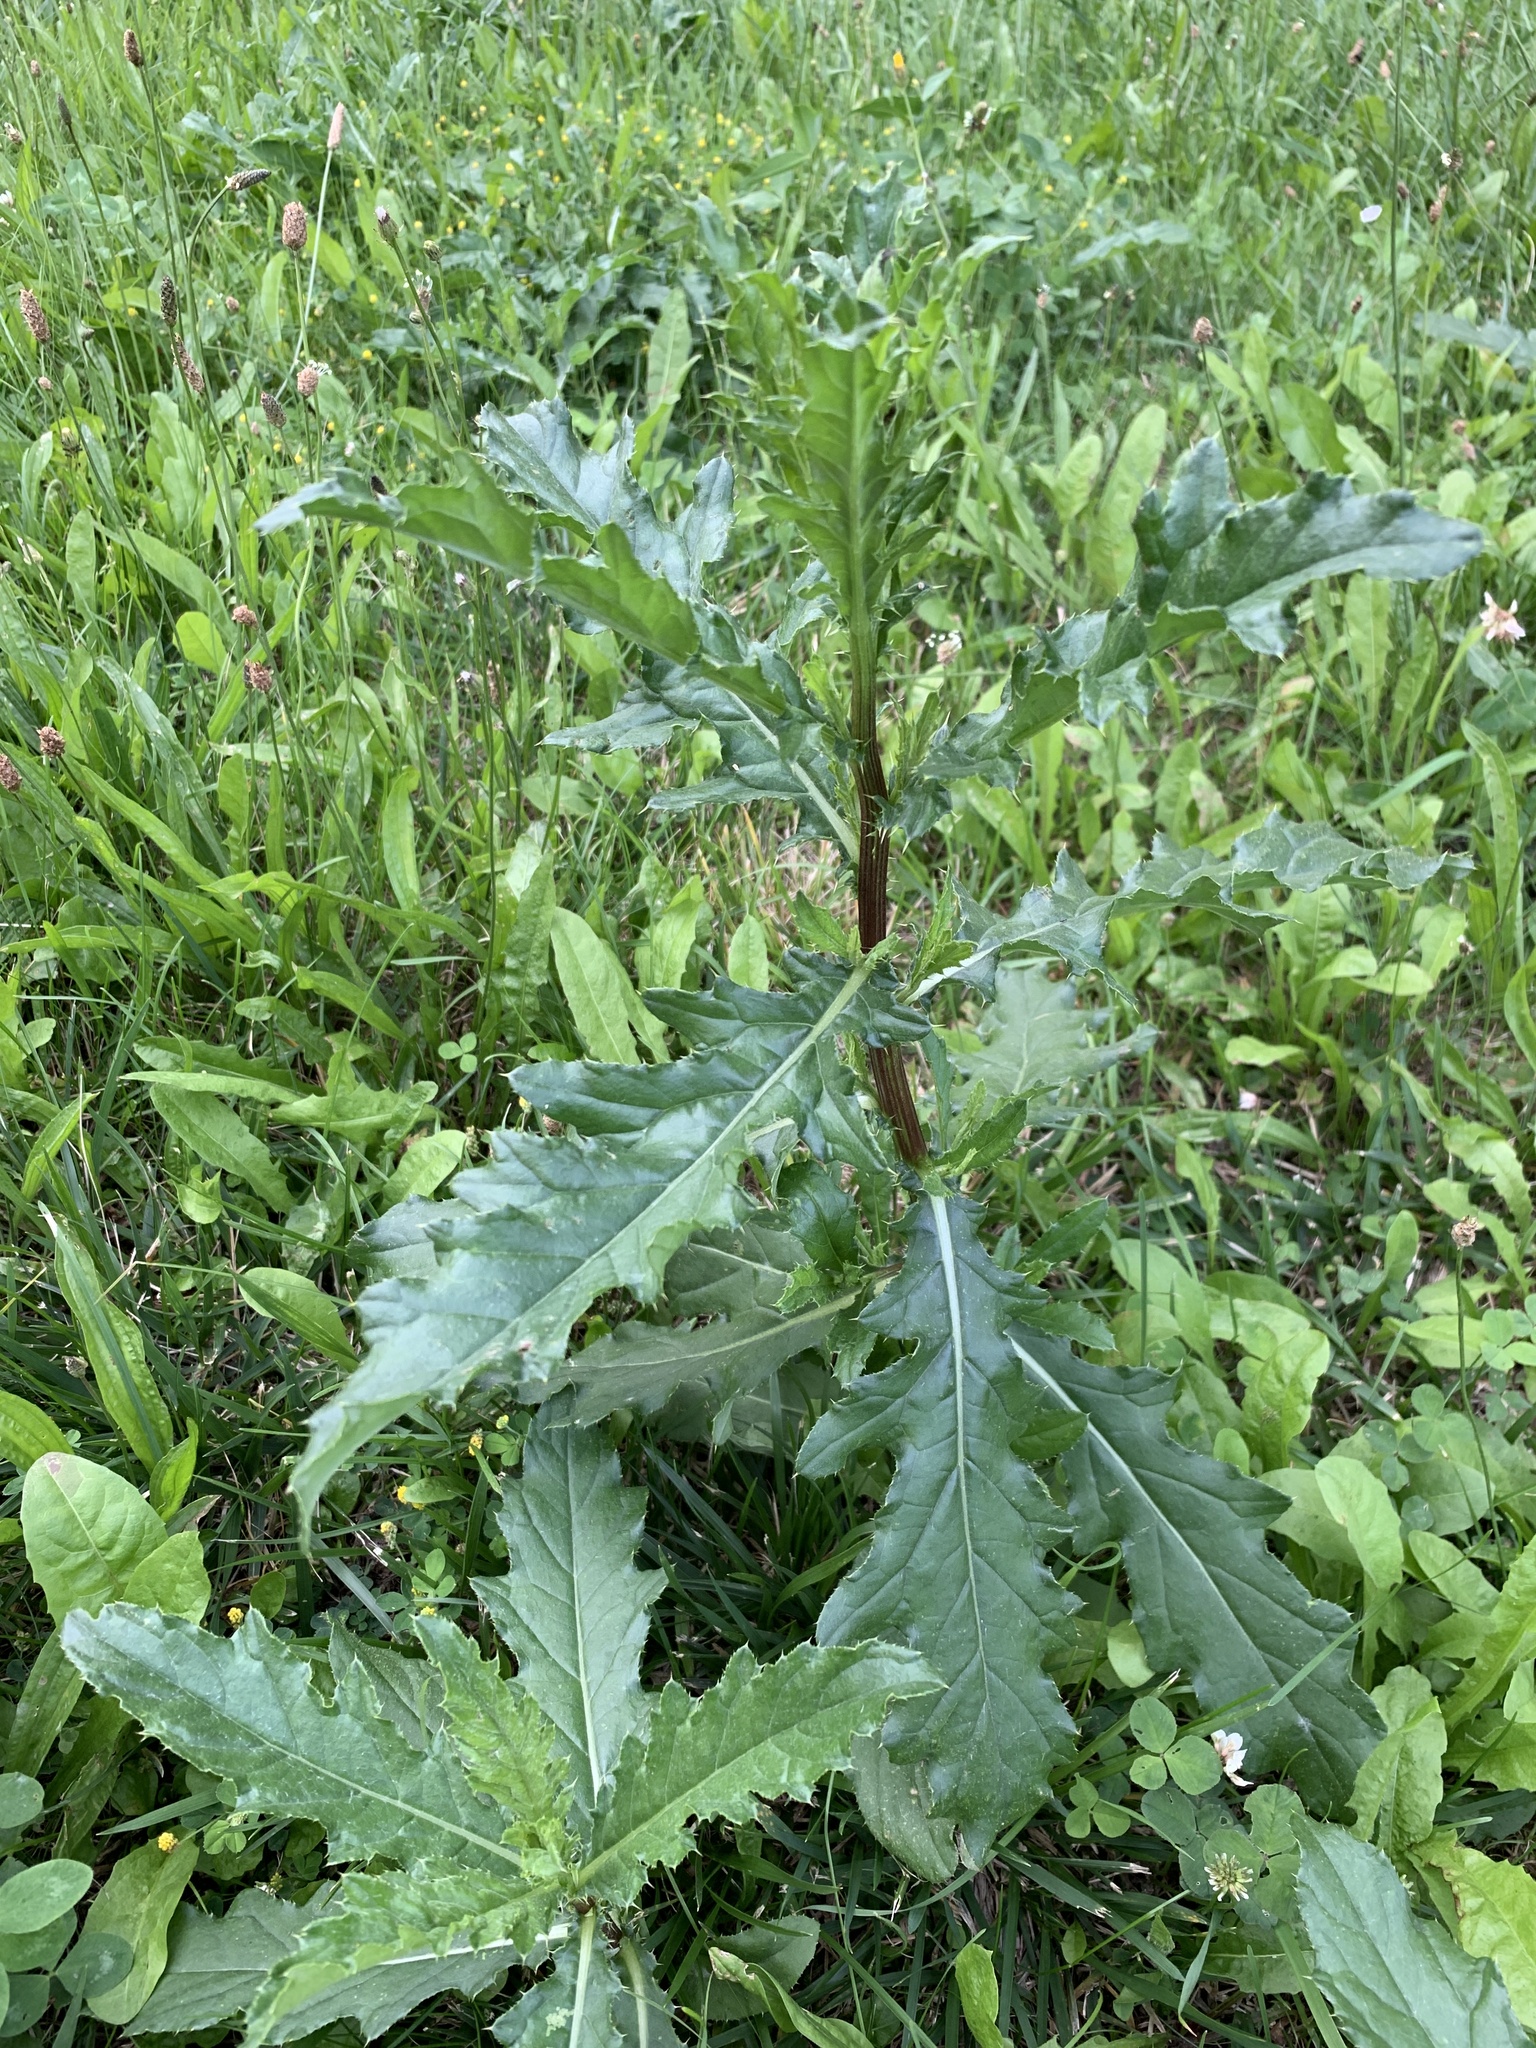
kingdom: Plantae
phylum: Tracheophyta
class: Magnoliopsida
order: Asterales
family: Asteraceae
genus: Cirsium
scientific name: Cirsium arvense
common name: Creeping thistle
